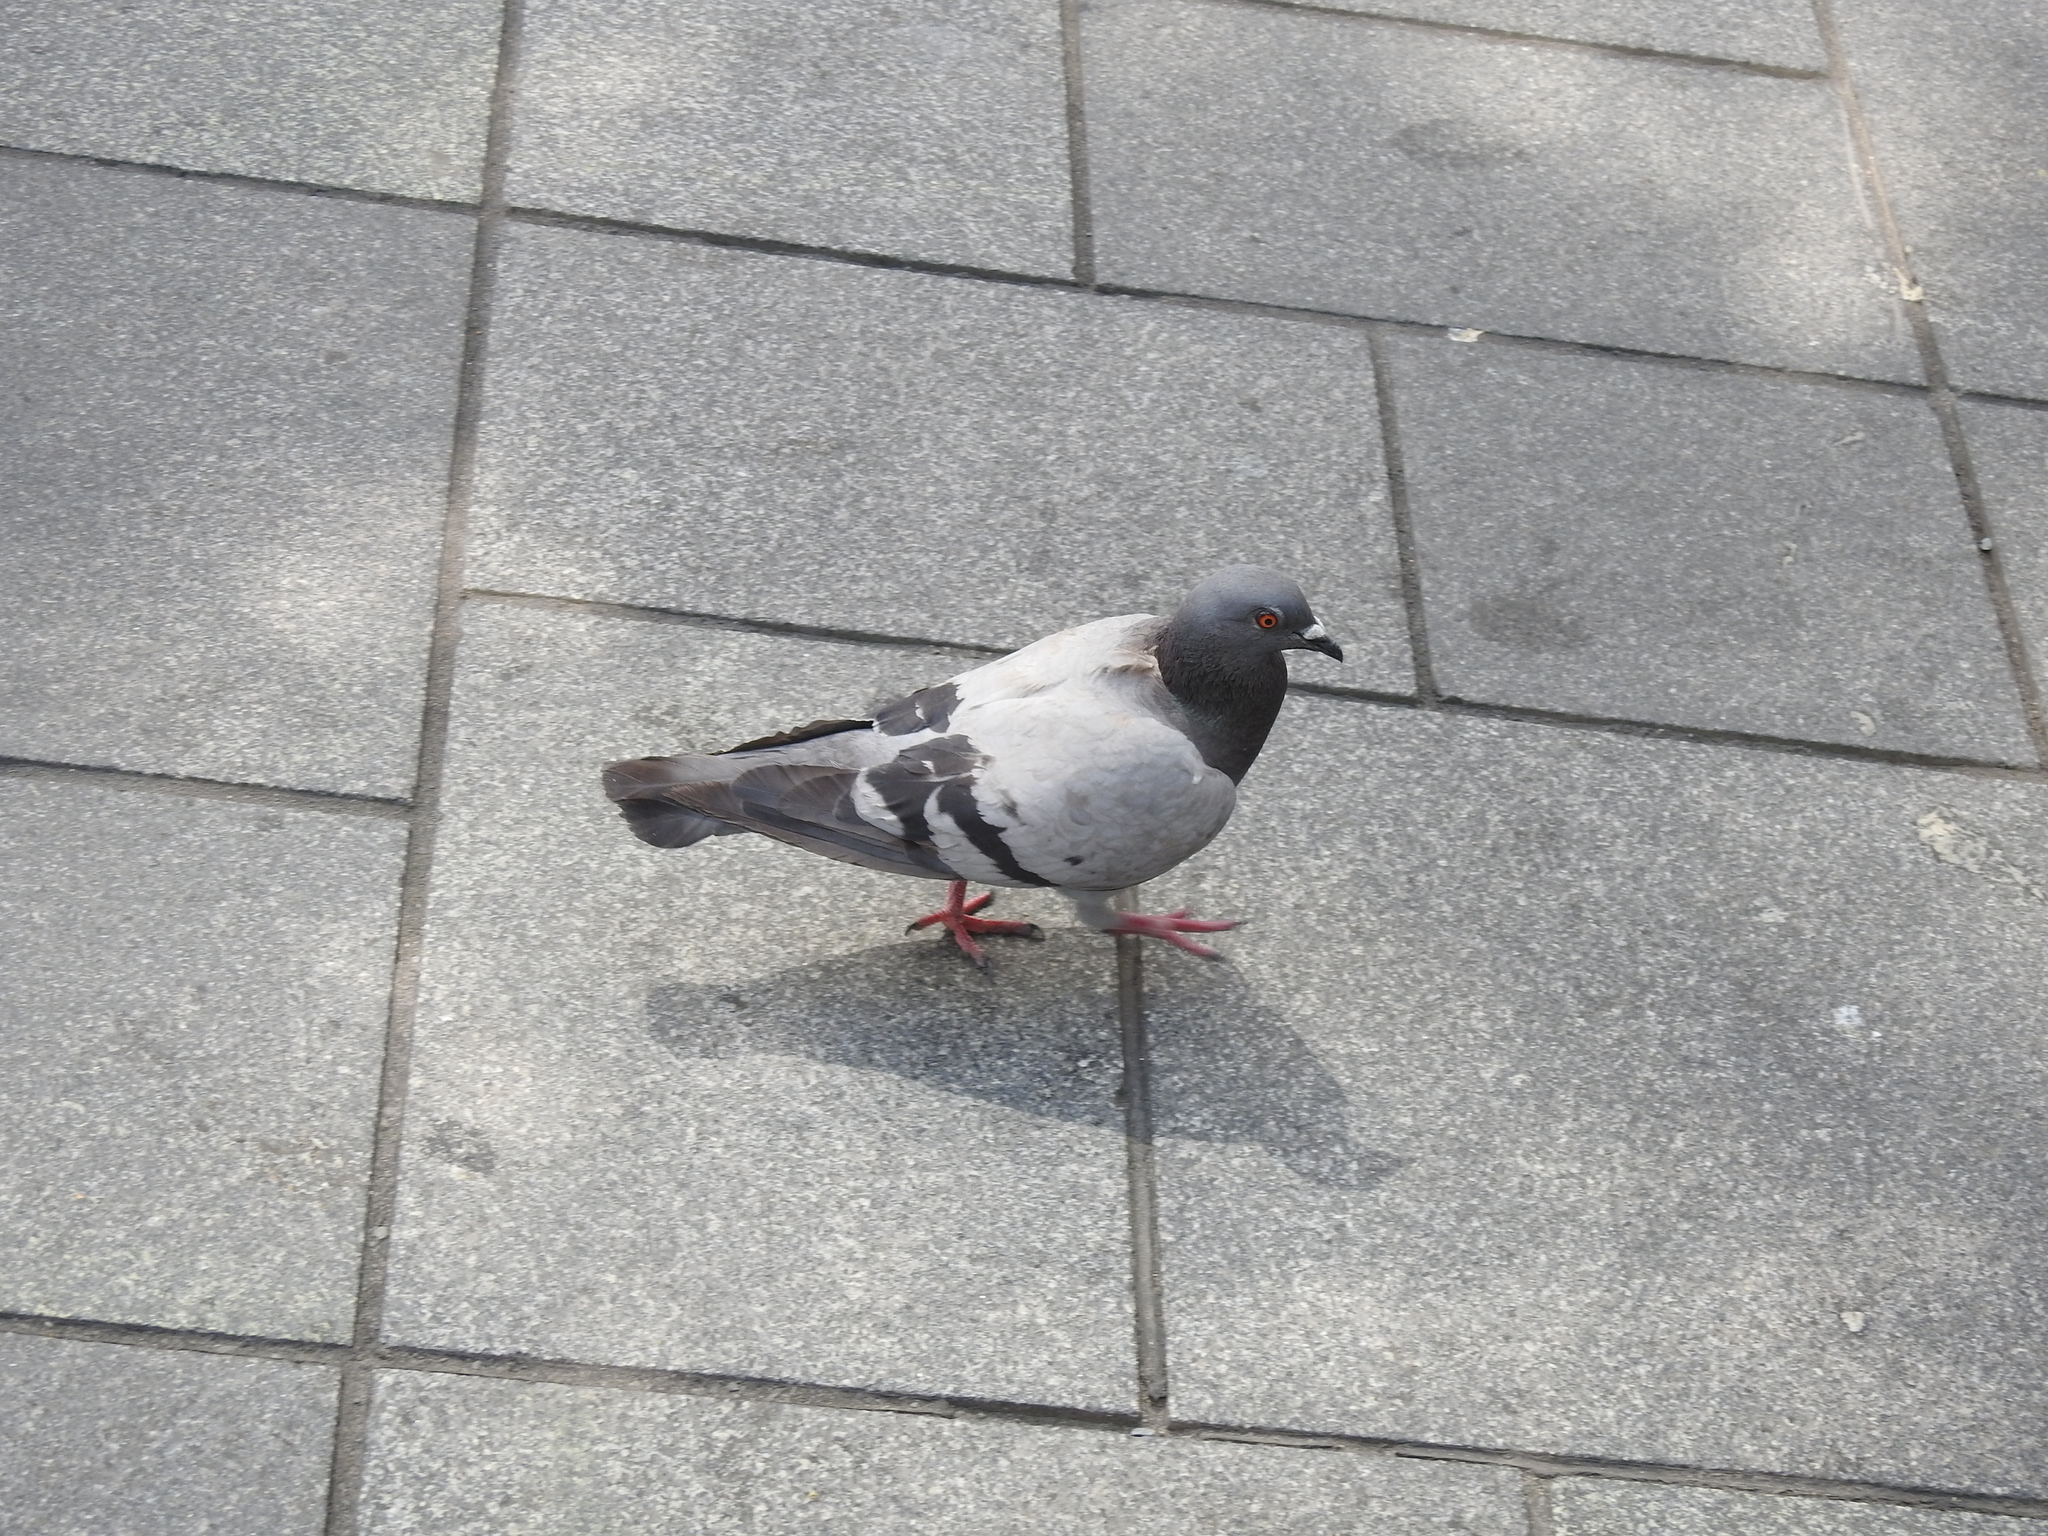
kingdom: Animalia
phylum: Chordata
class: Aves
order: Columbiformes
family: Columbidae
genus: Columba
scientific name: Columba livia
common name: Rock pigeon
